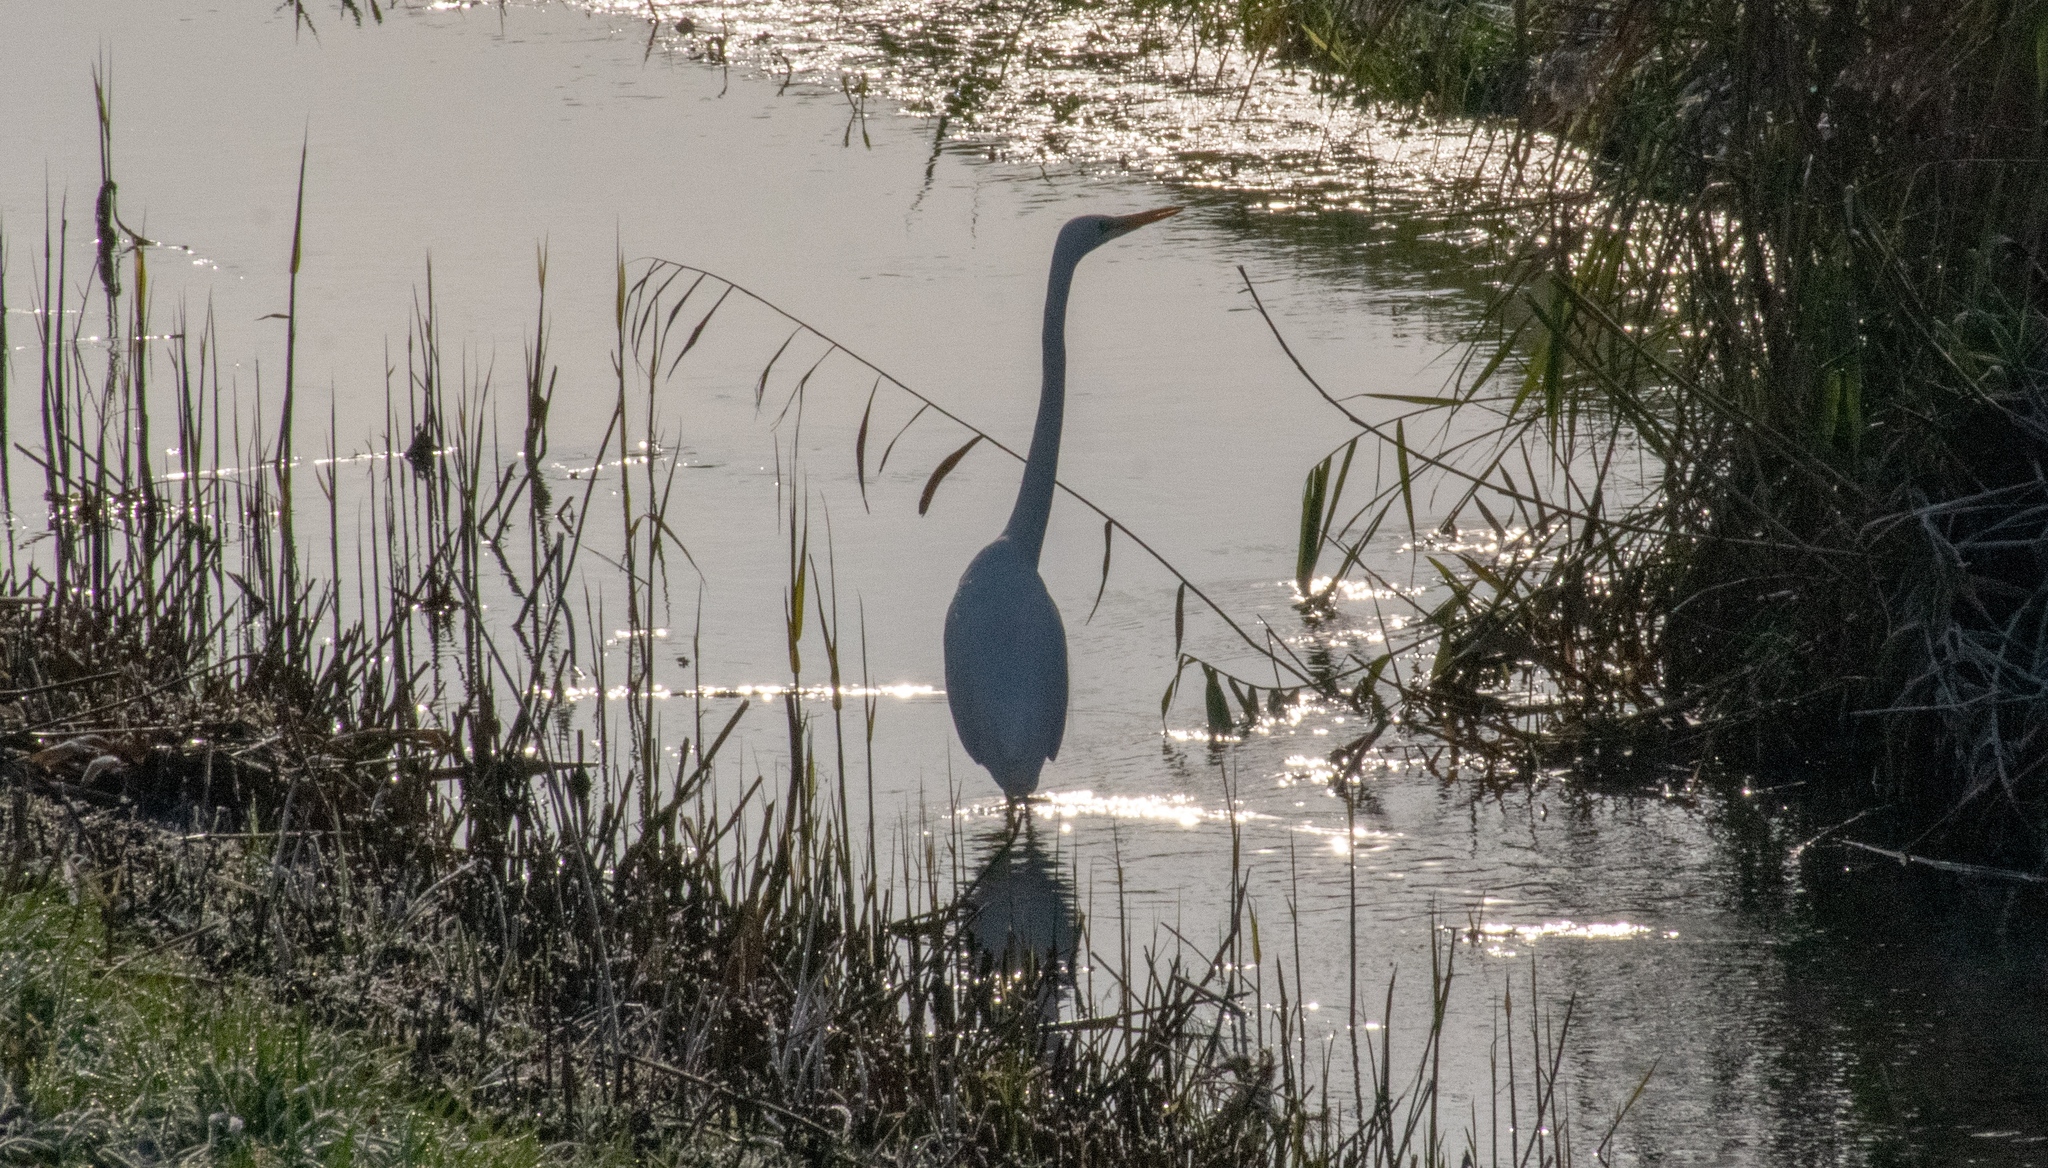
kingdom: Animalia
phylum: Chordata
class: Aves
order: Pelecaniformes
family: Ardeidae
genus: Ardea
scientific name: Ardea alba
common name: Great egret
